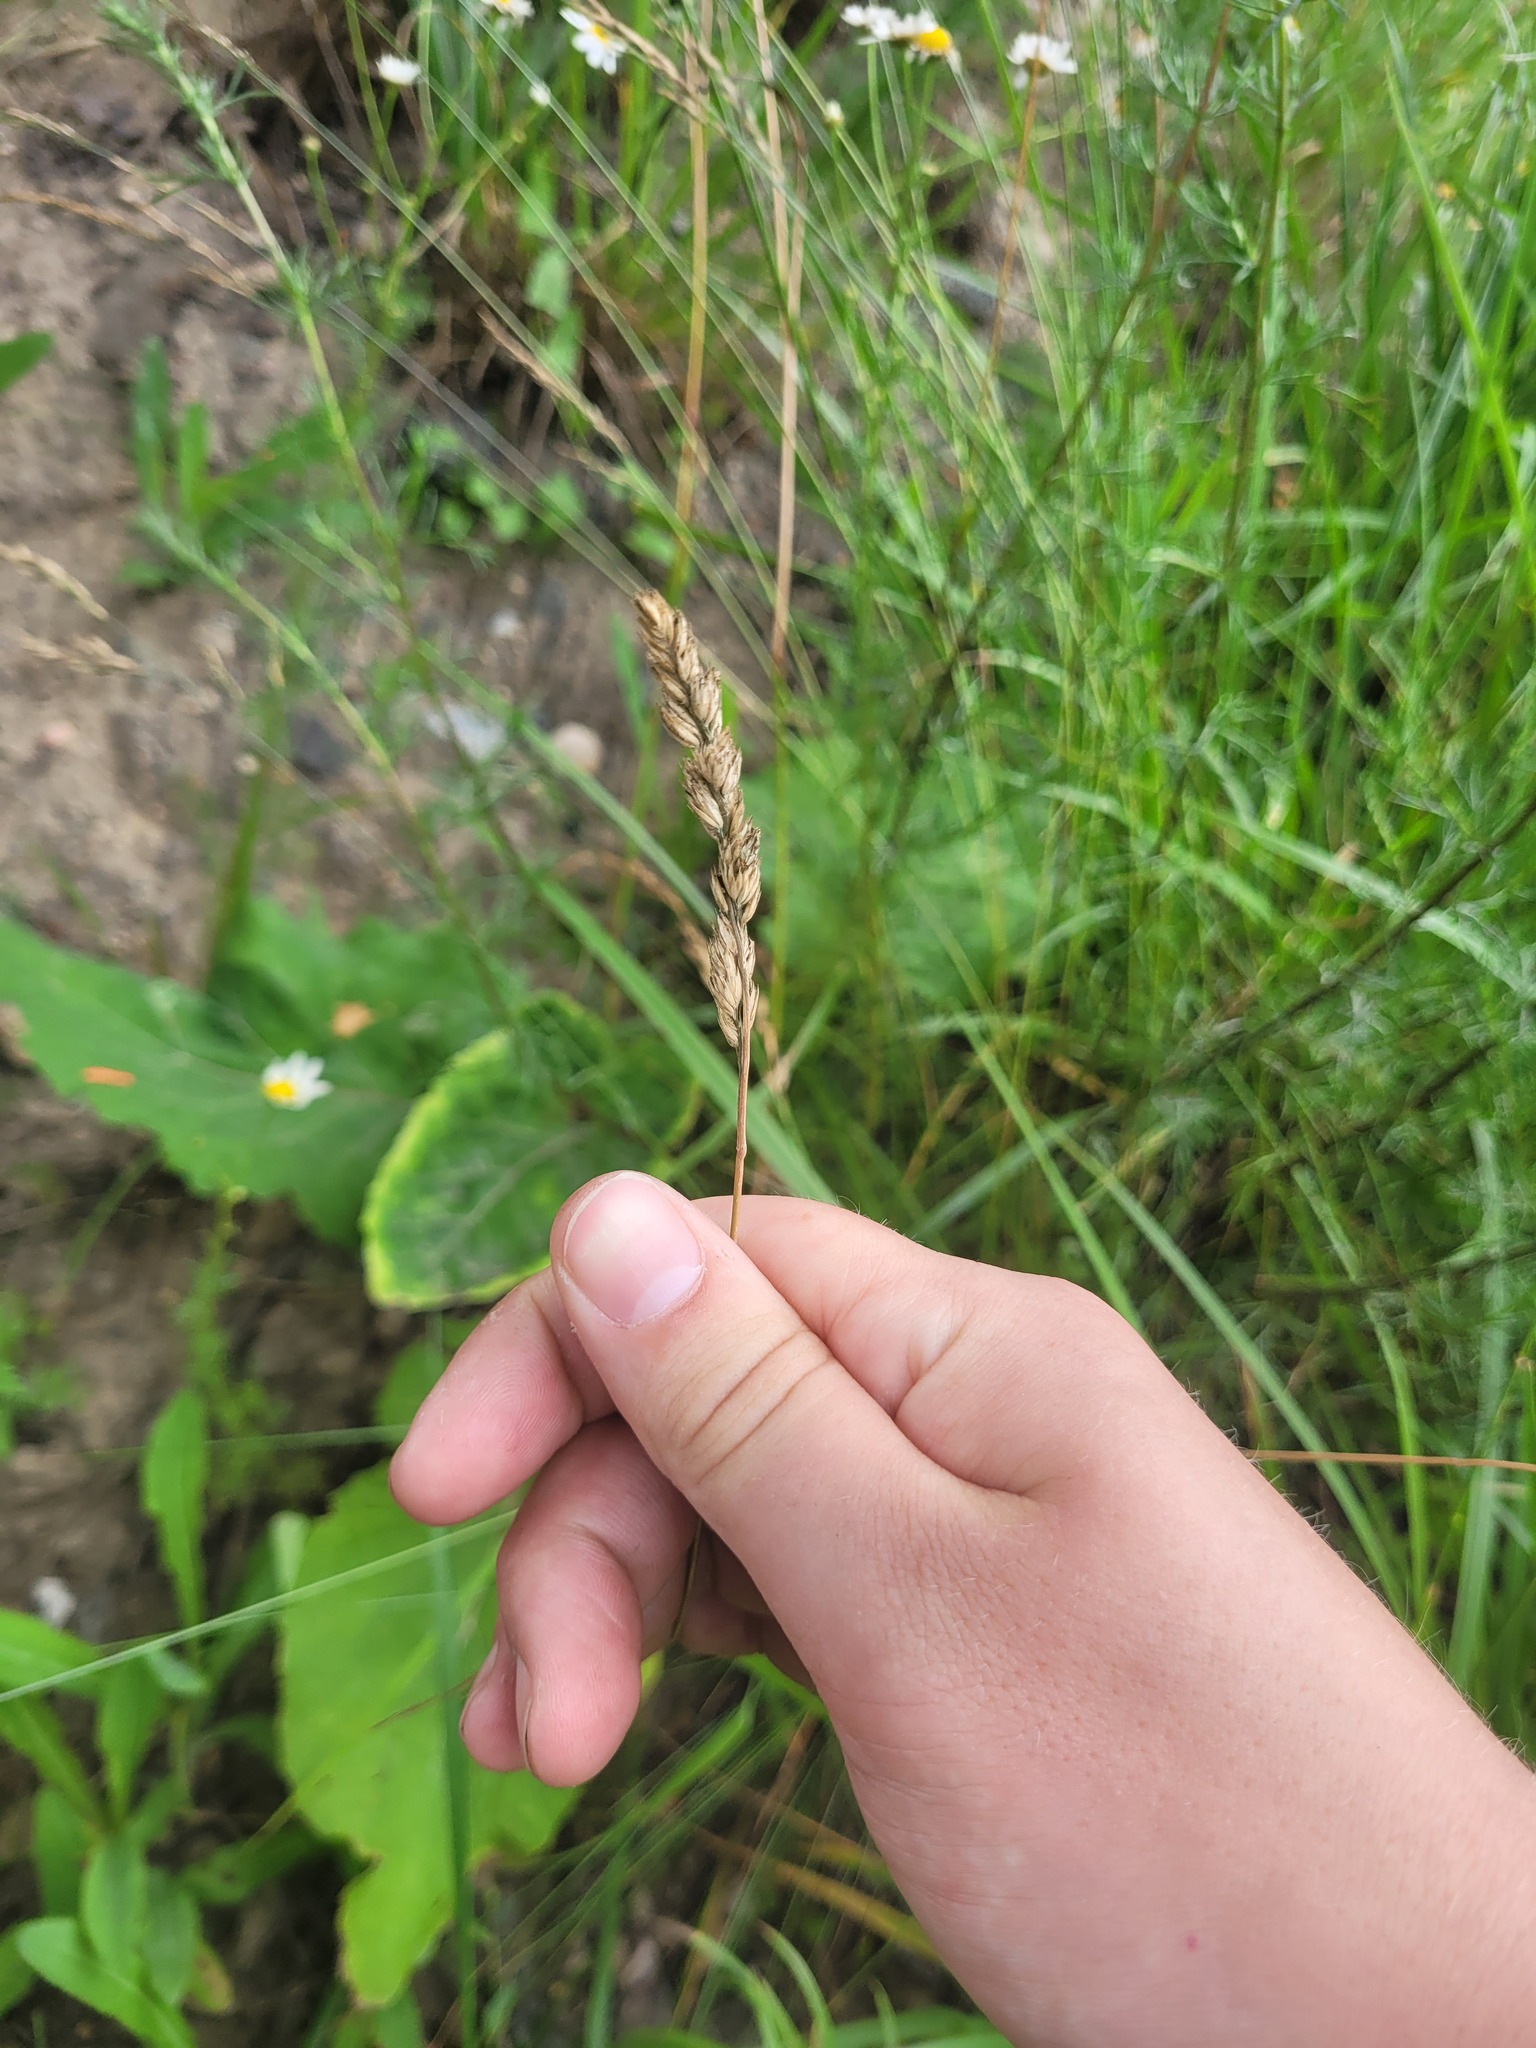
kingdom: Plantae
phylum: Tracheophyta
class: Liliopsida
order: Poales
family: Poaceae
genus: Dactylis
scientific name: Dactylis glomerata
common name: Orchardgrass
